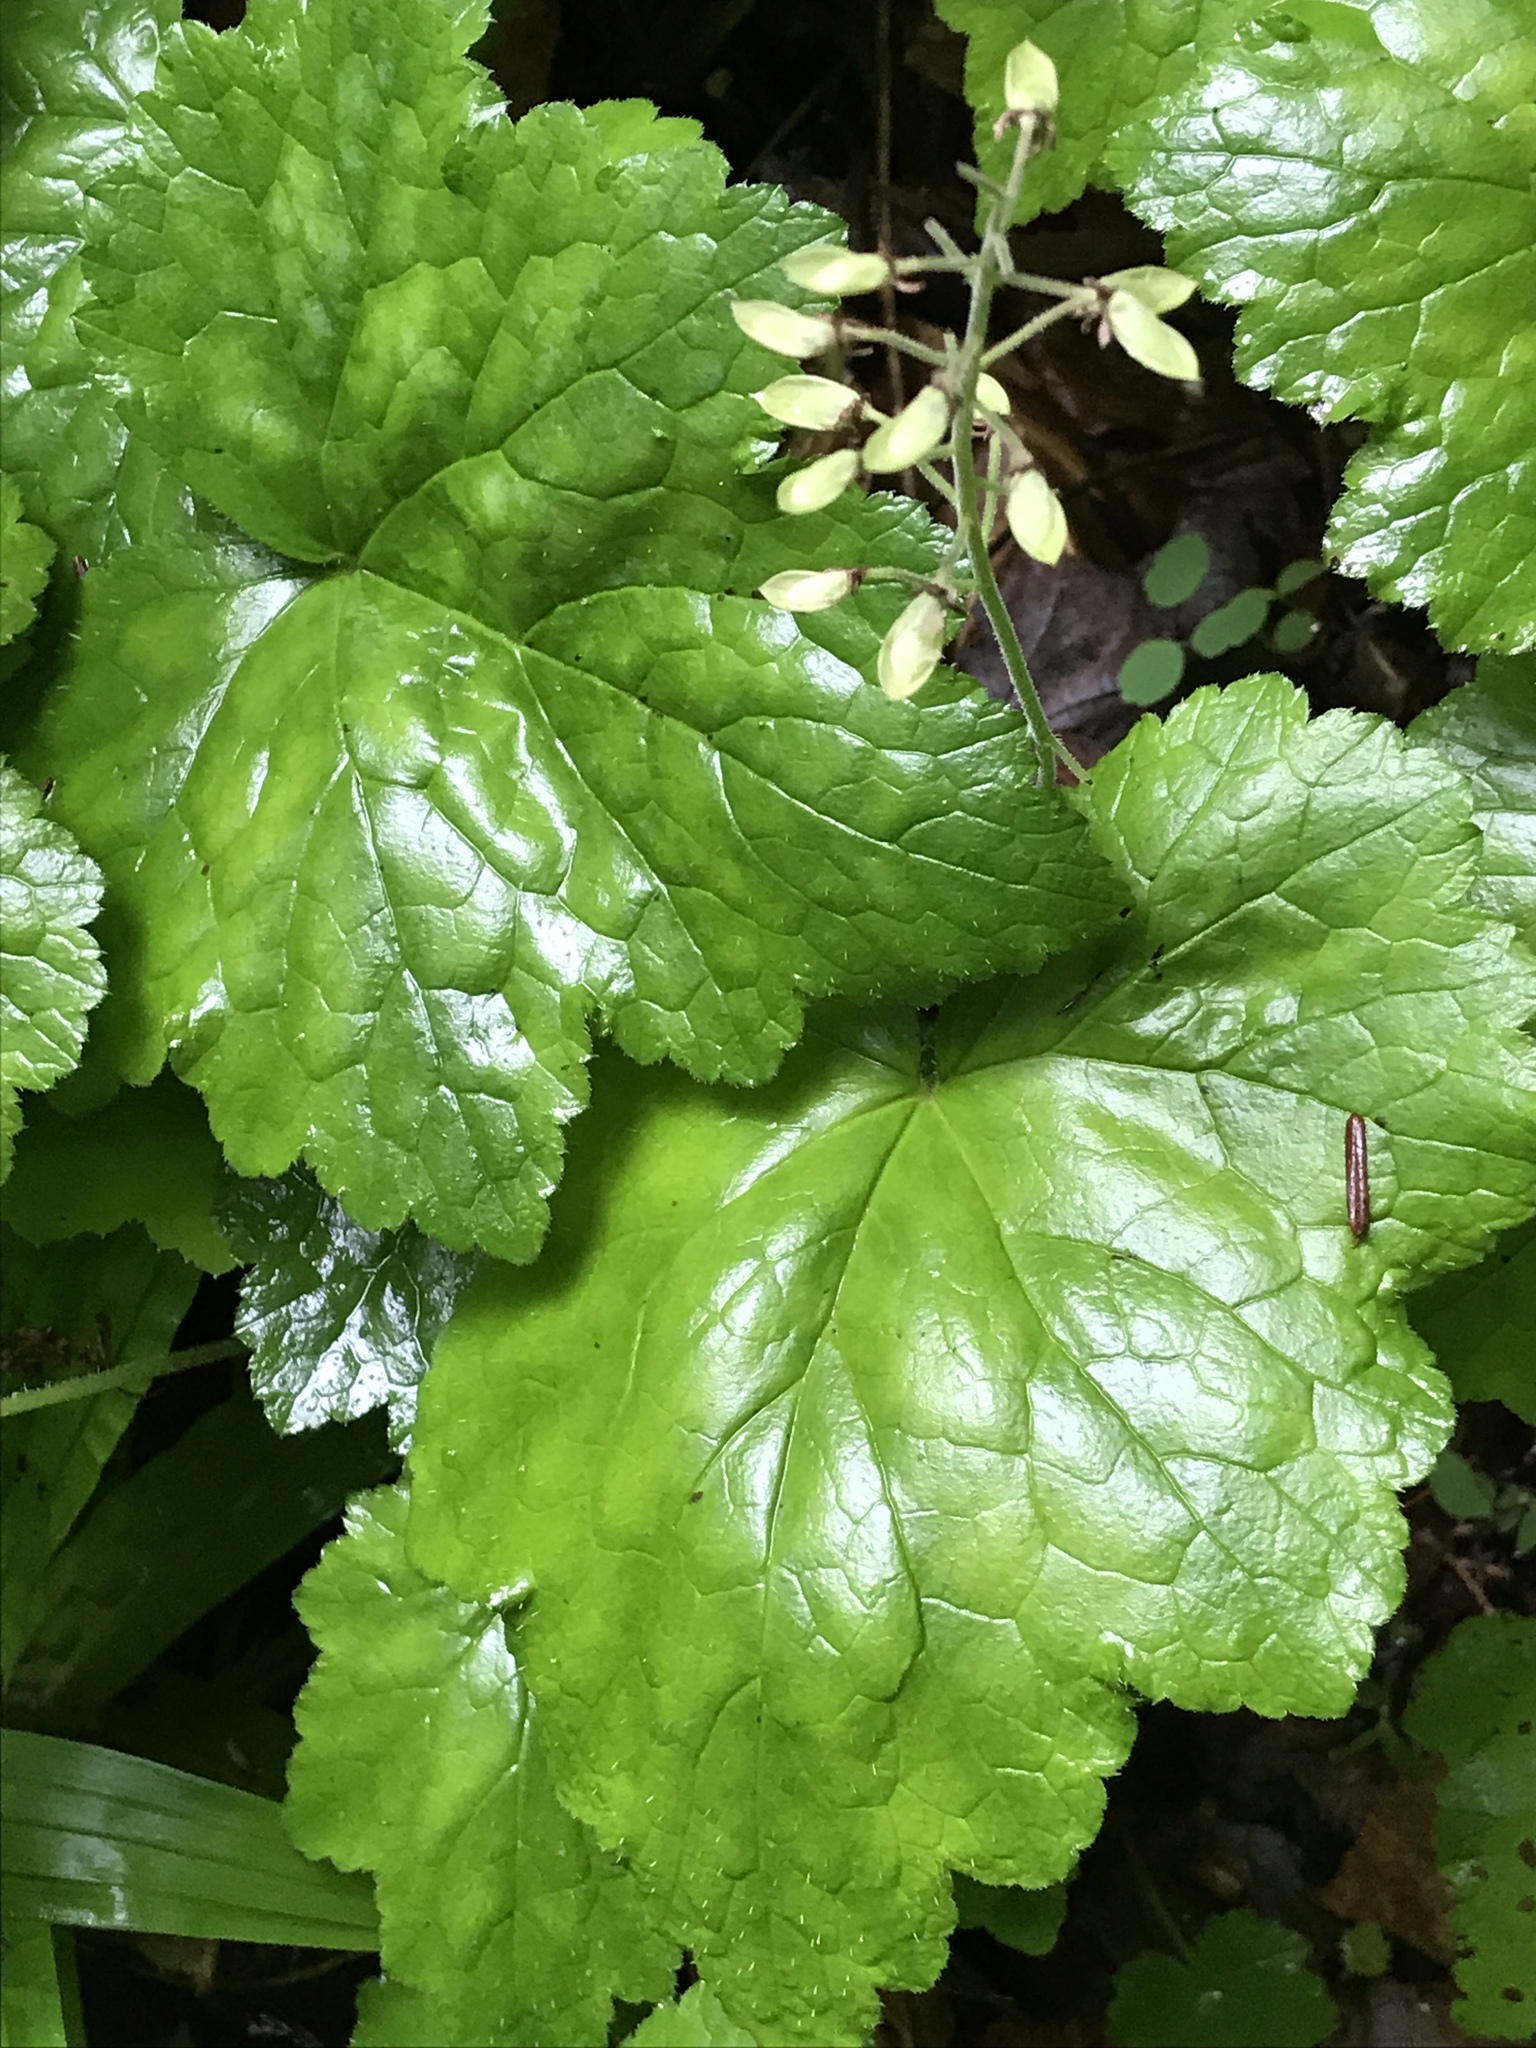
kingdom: Plantae
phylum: Tracheophyta
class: Magnoliopsida
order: Saxifragales
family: Saxifragaceae
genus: Tiarella
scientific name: Tiarella stolonifera
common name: Stoloniferous foamflower
